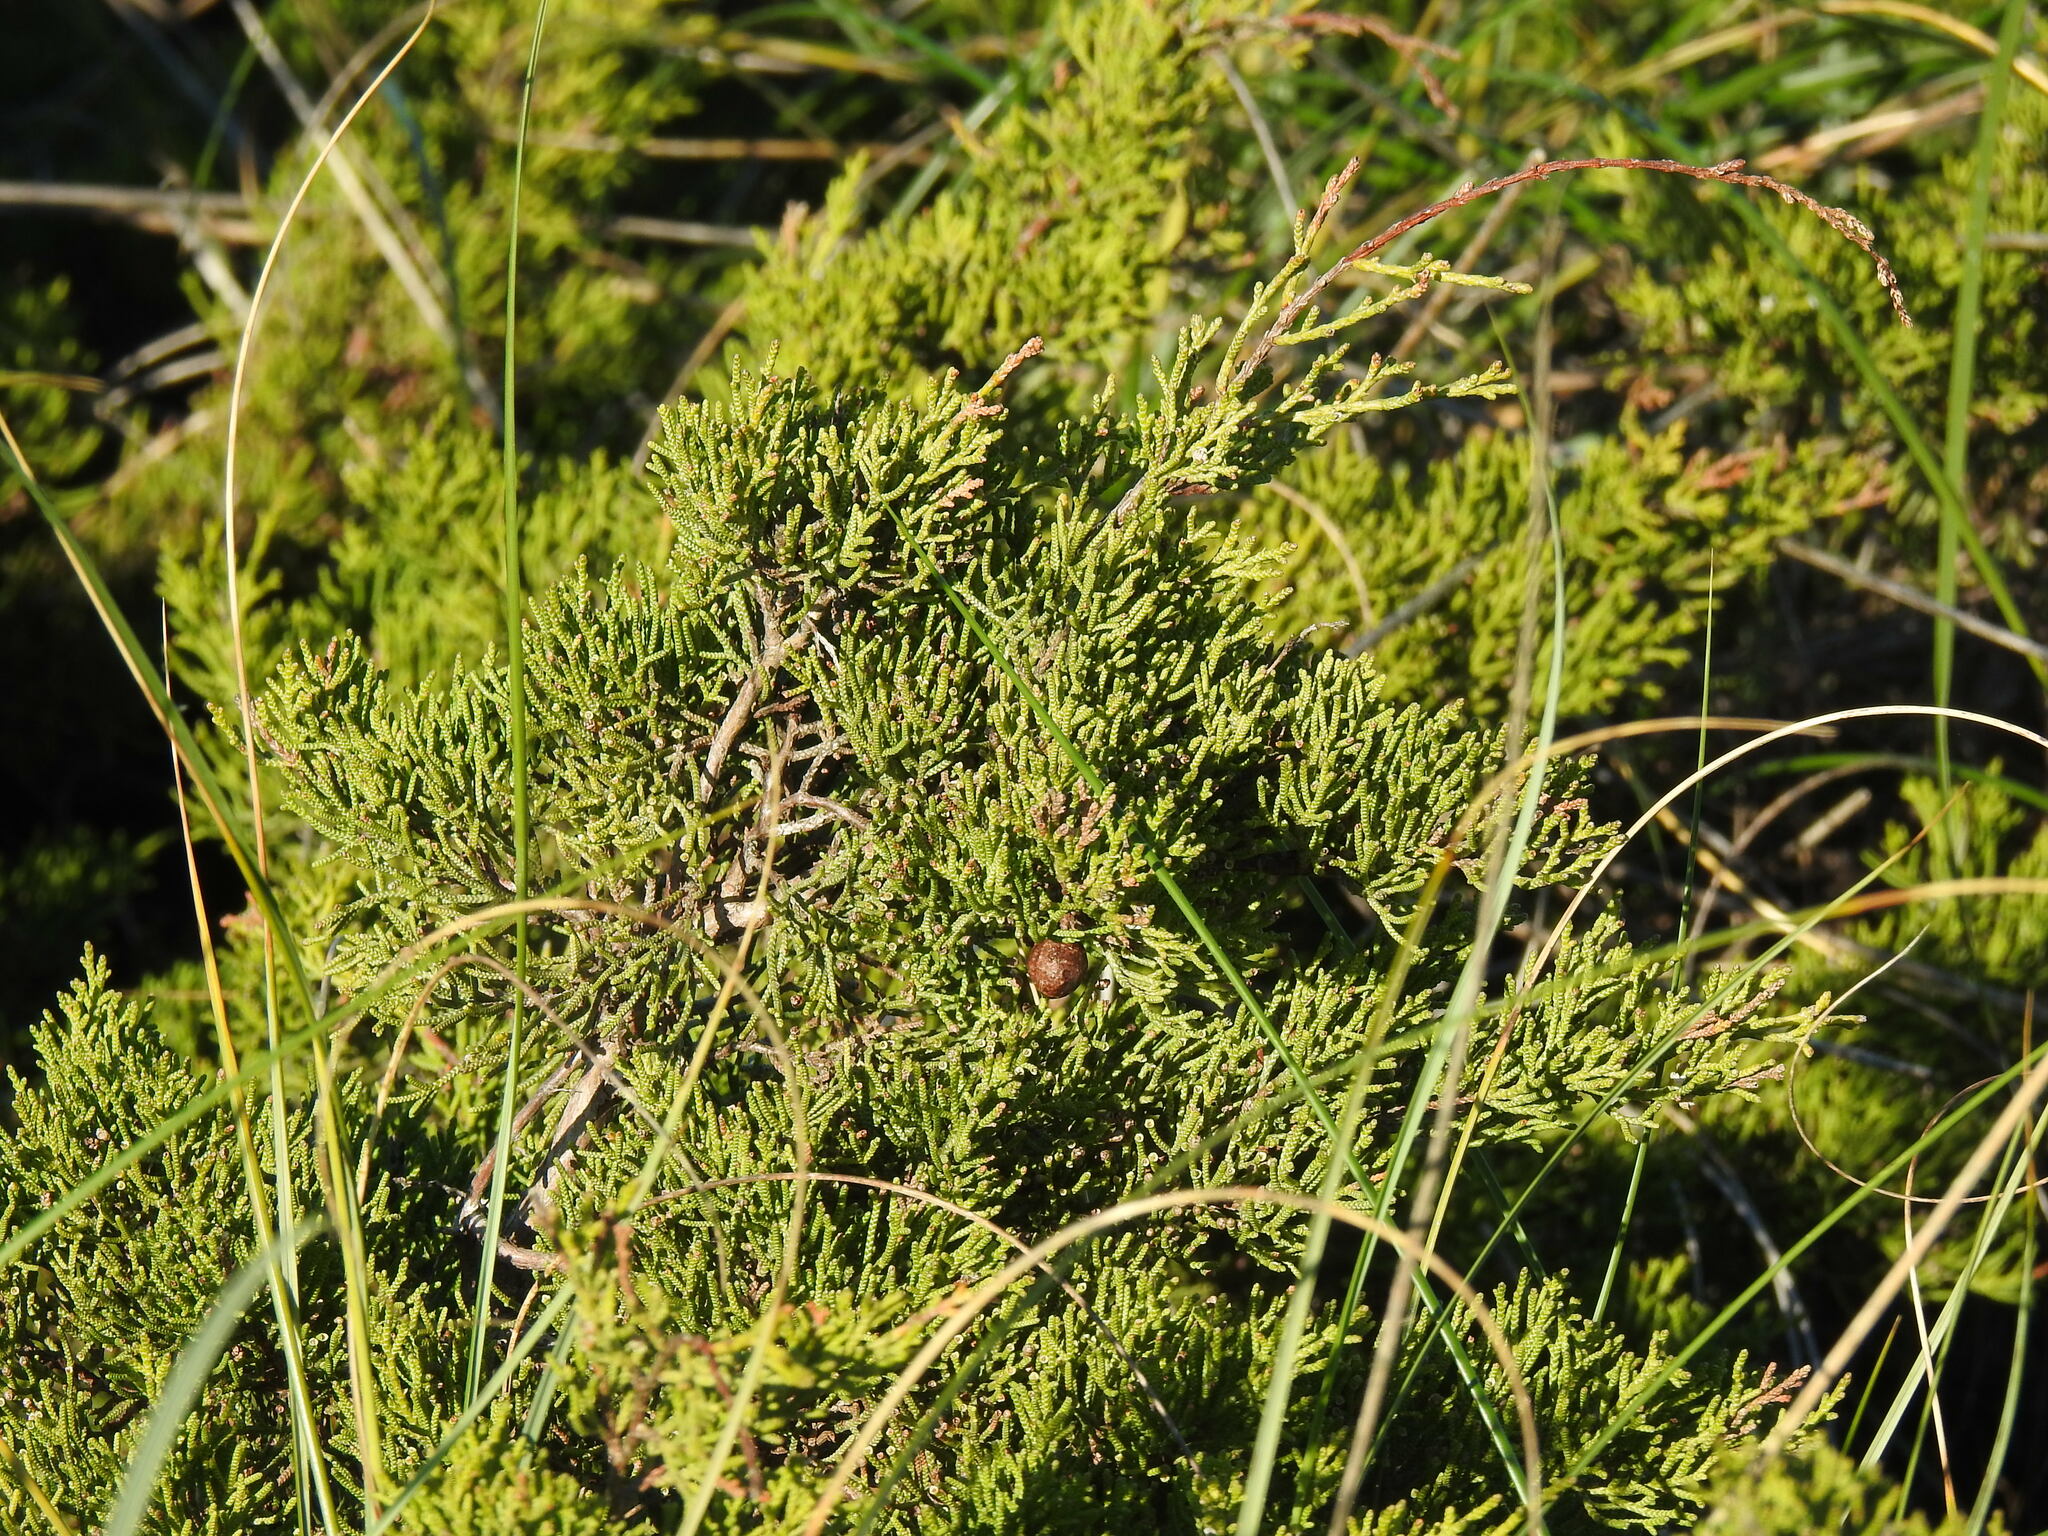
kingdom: Plantae
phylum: Tracheophyta
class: Pinopsida
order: Pinales
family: Cupressaceae
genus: Juniperus
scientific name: Juniperus phoenicea
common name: Phoenician juniper
